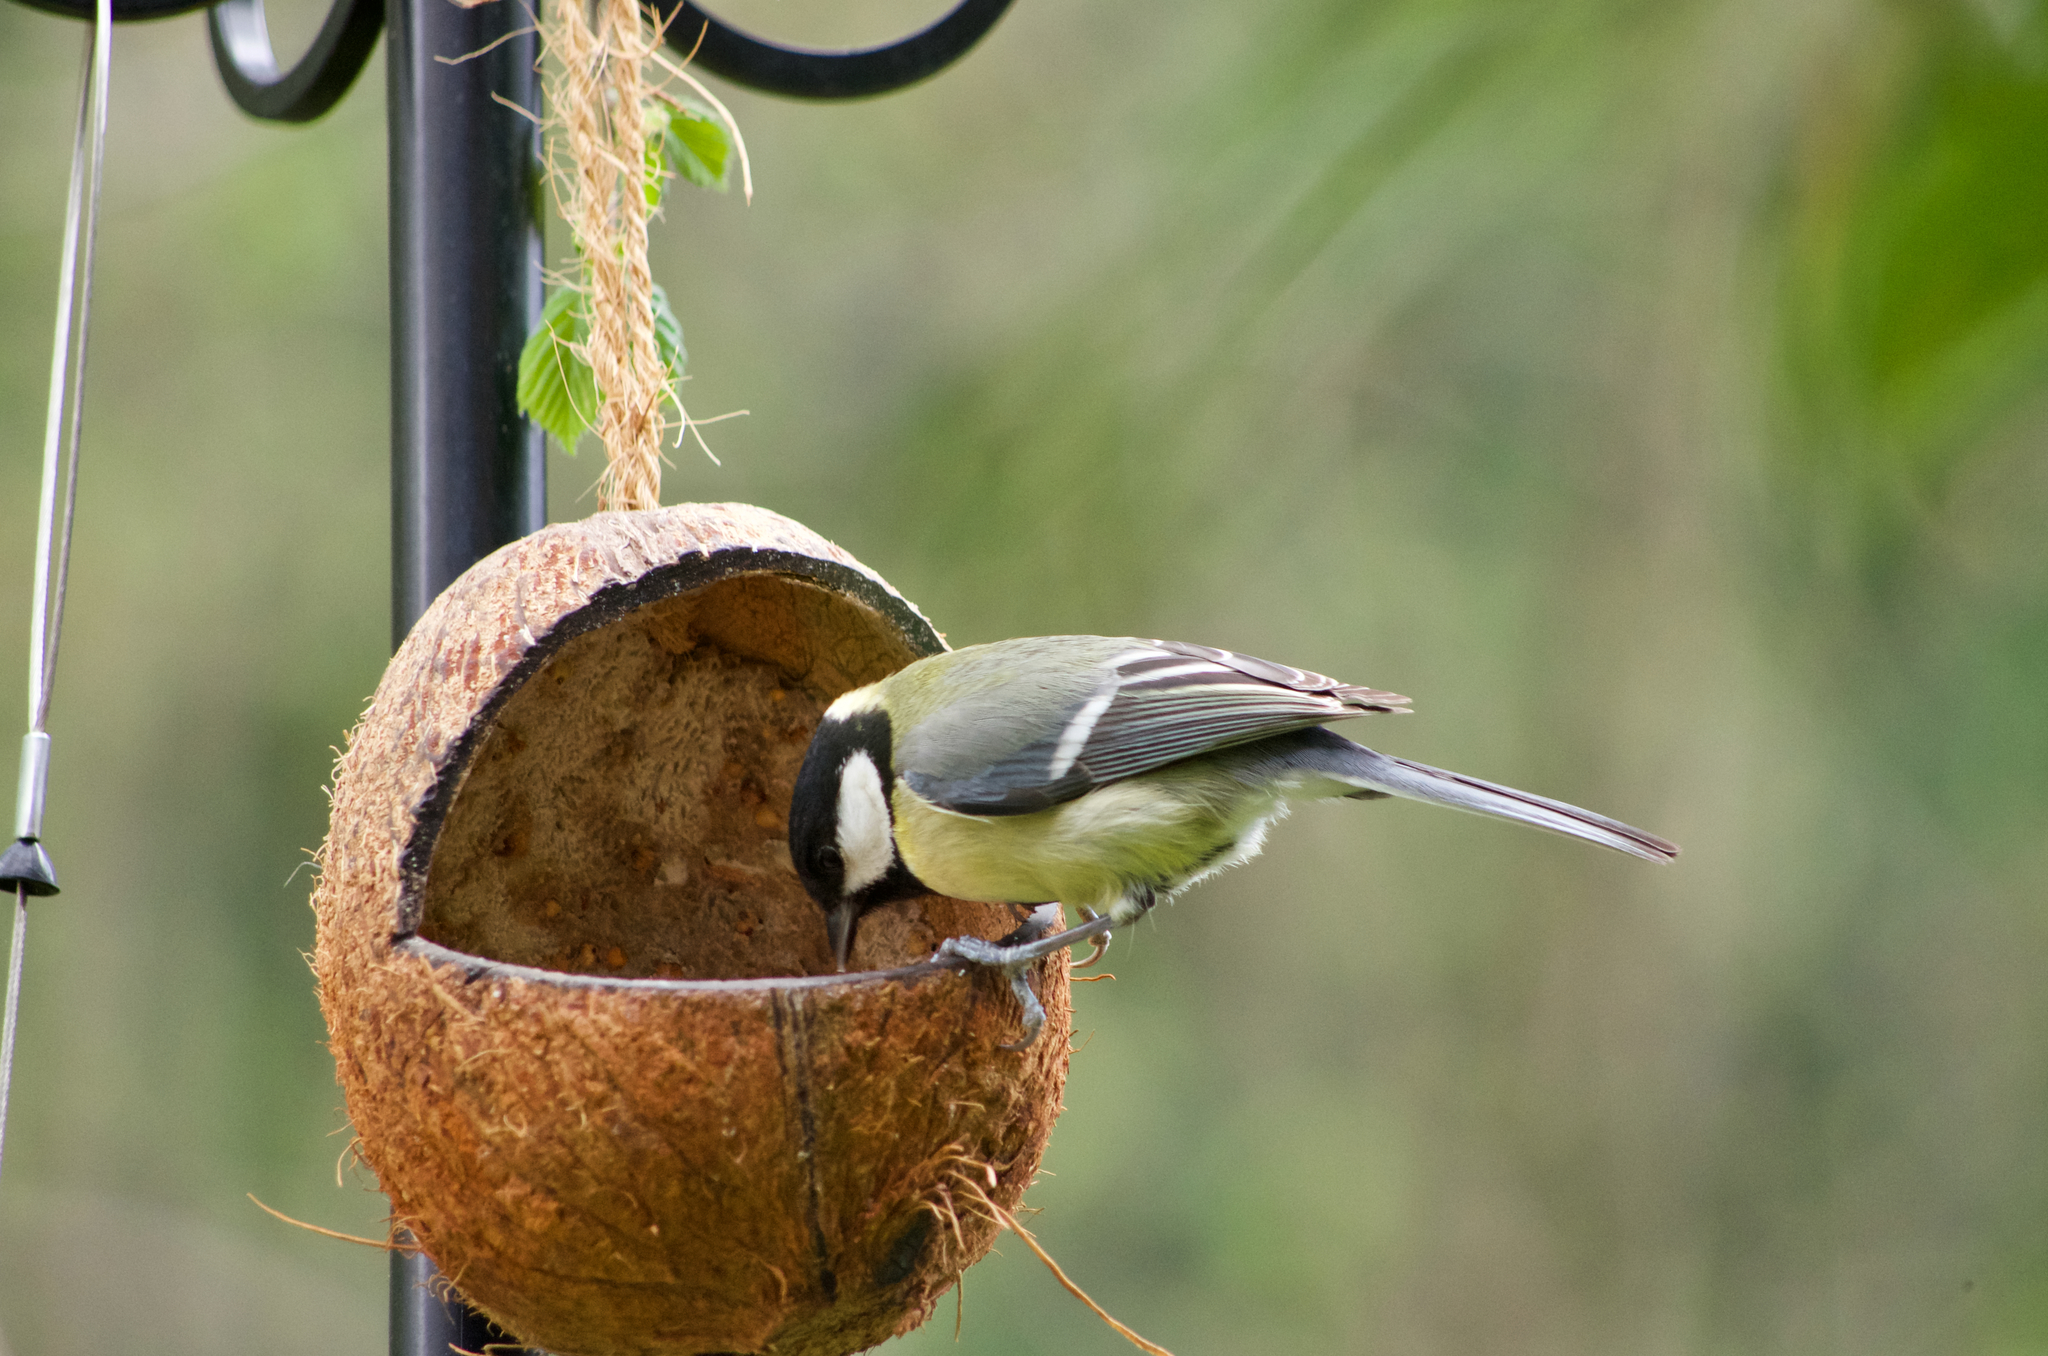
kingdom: Animalia
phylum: Chordata
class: Aves
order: Passeriformes
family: Paridae
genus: Parus
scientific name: Parus major
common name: Great tit
